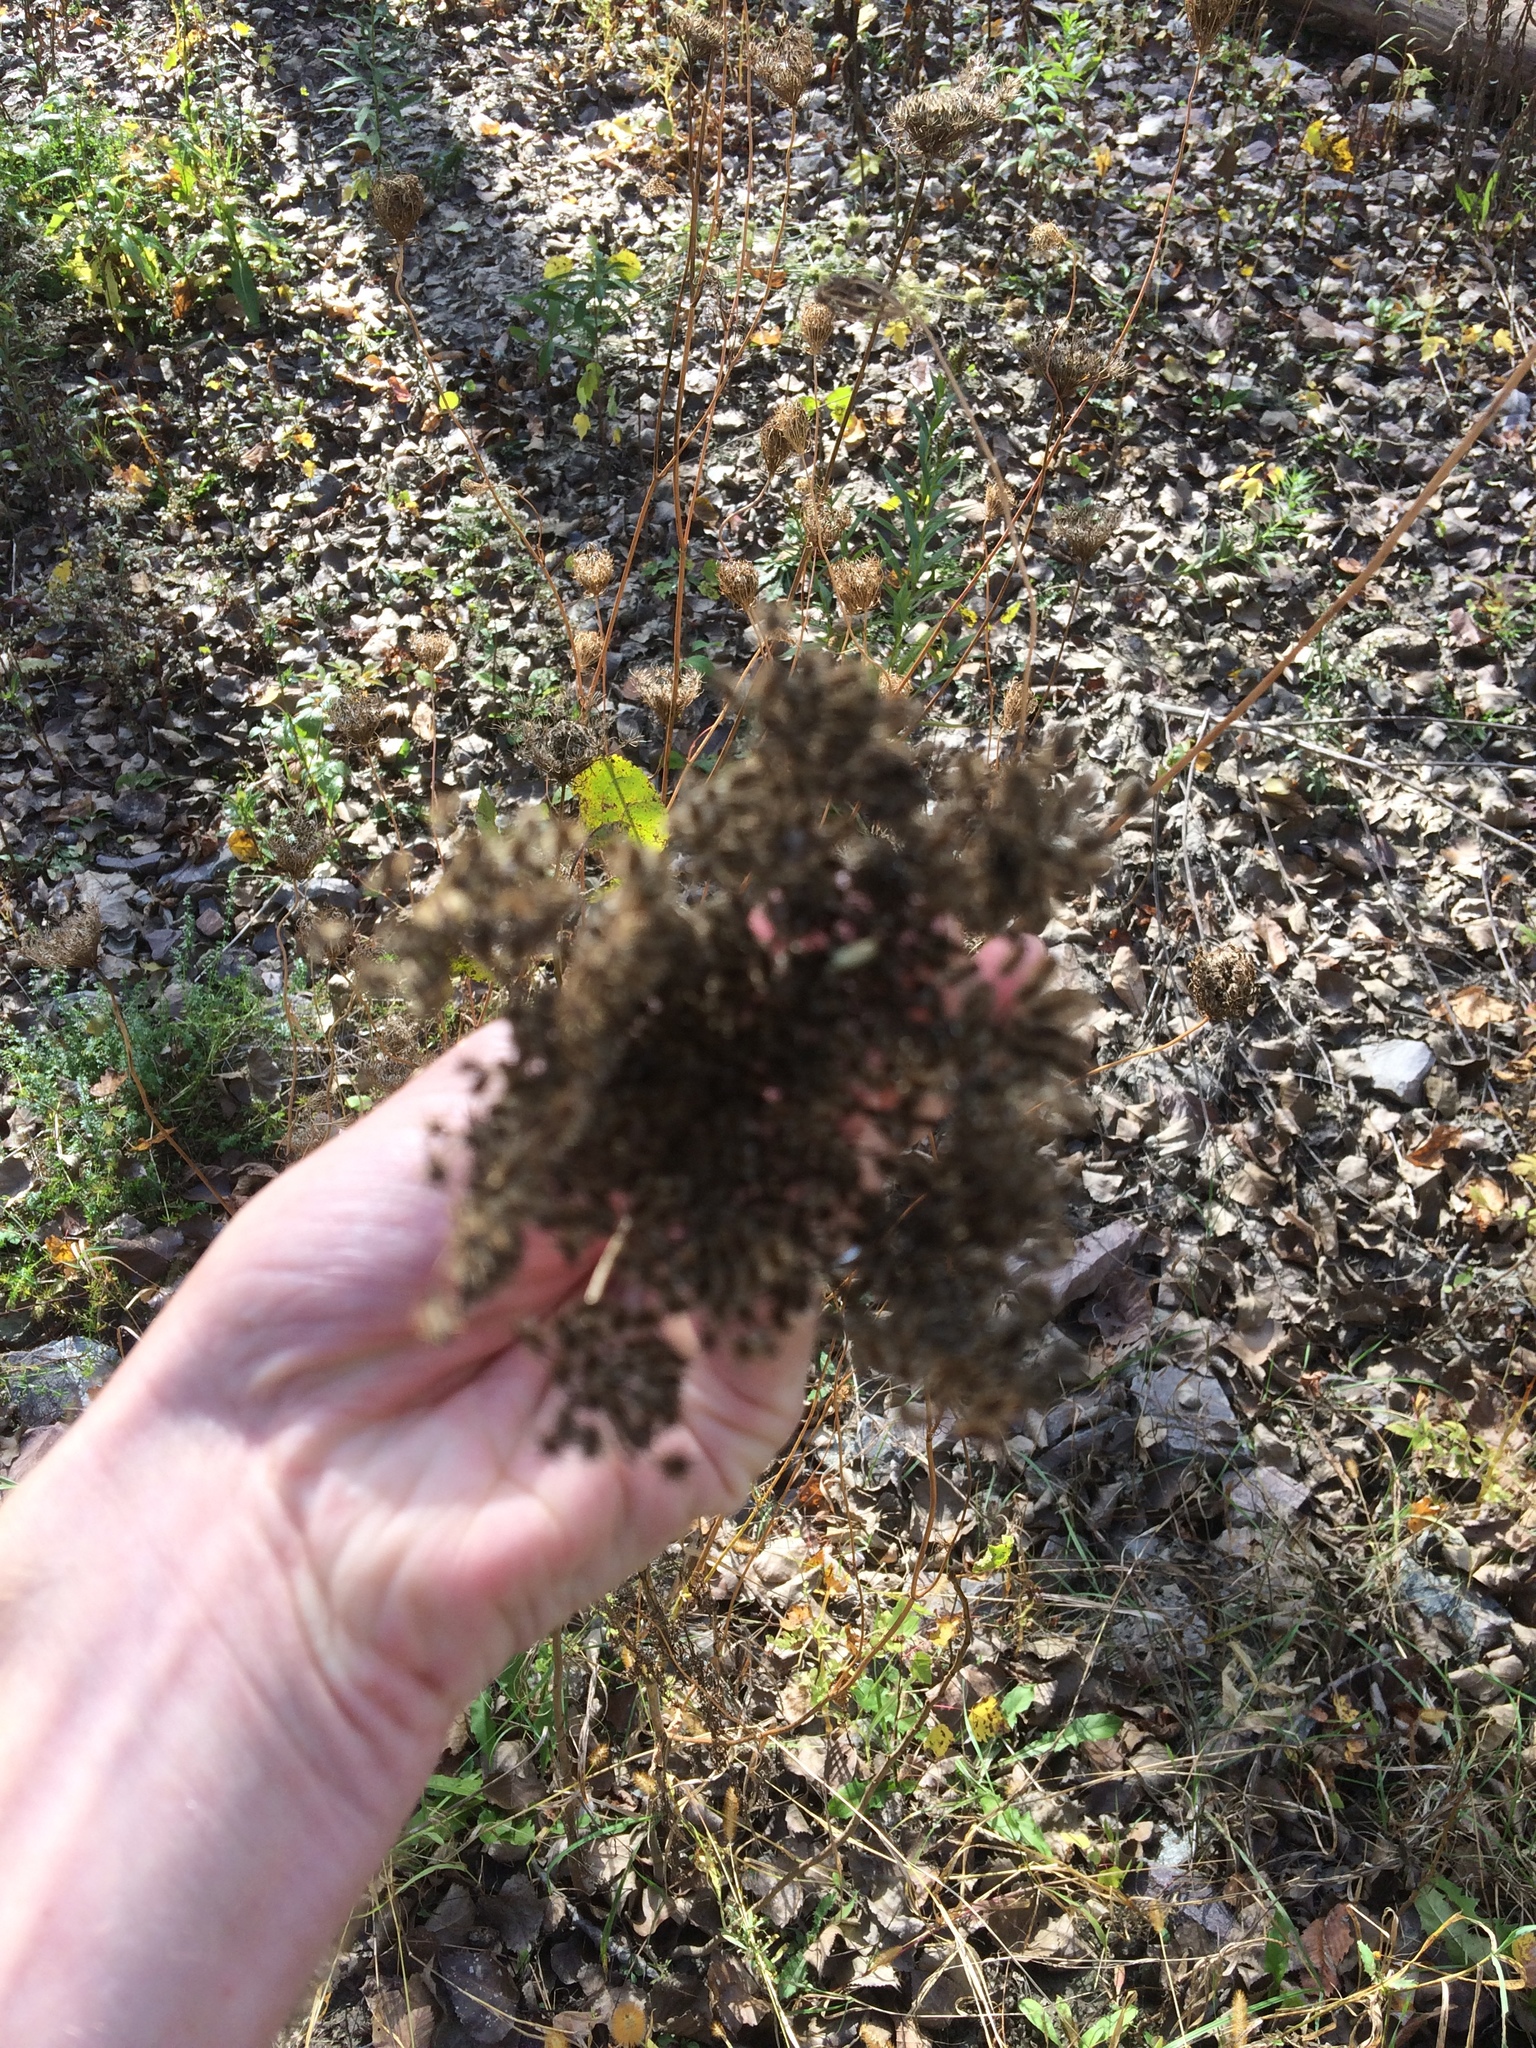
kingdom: Plantae
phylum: Tracheophyta
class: Magnoliopsida
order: Apiales
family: Apiaceae
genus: Daucus
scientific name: Daucus carota
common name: Wild carrot
